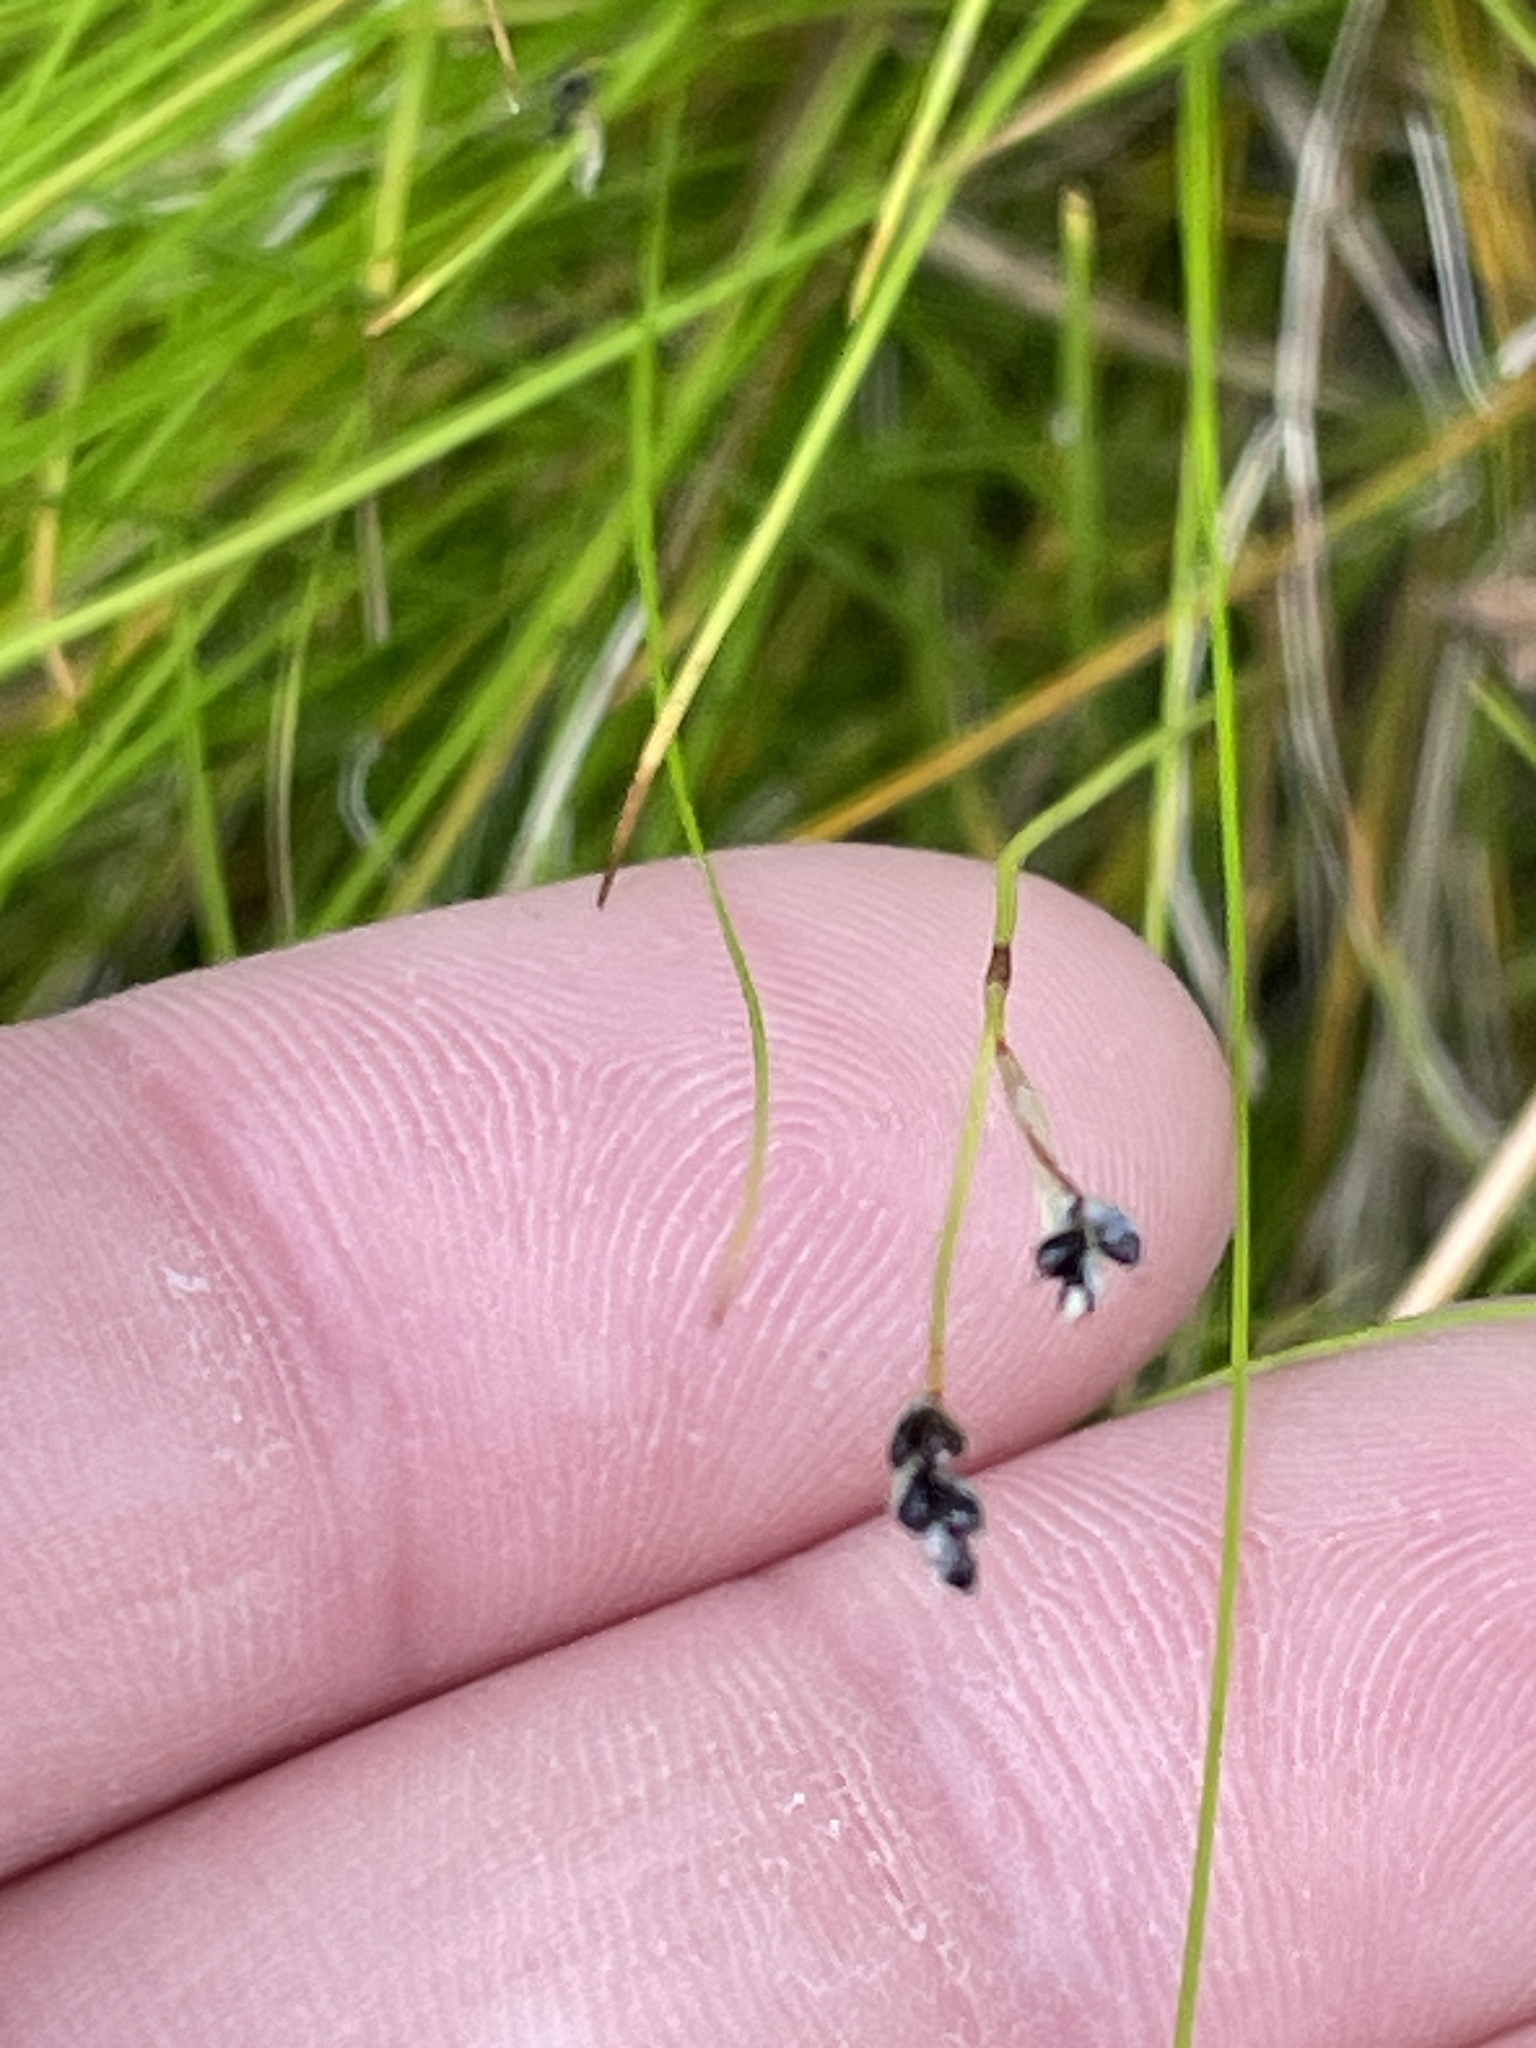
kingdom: Plantae
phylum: Tracheophyta
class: Liliopsida
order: Poales
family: Cyperaceae
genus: Carex
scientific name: Carex eburnea
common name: Bristle-leaved sedge
